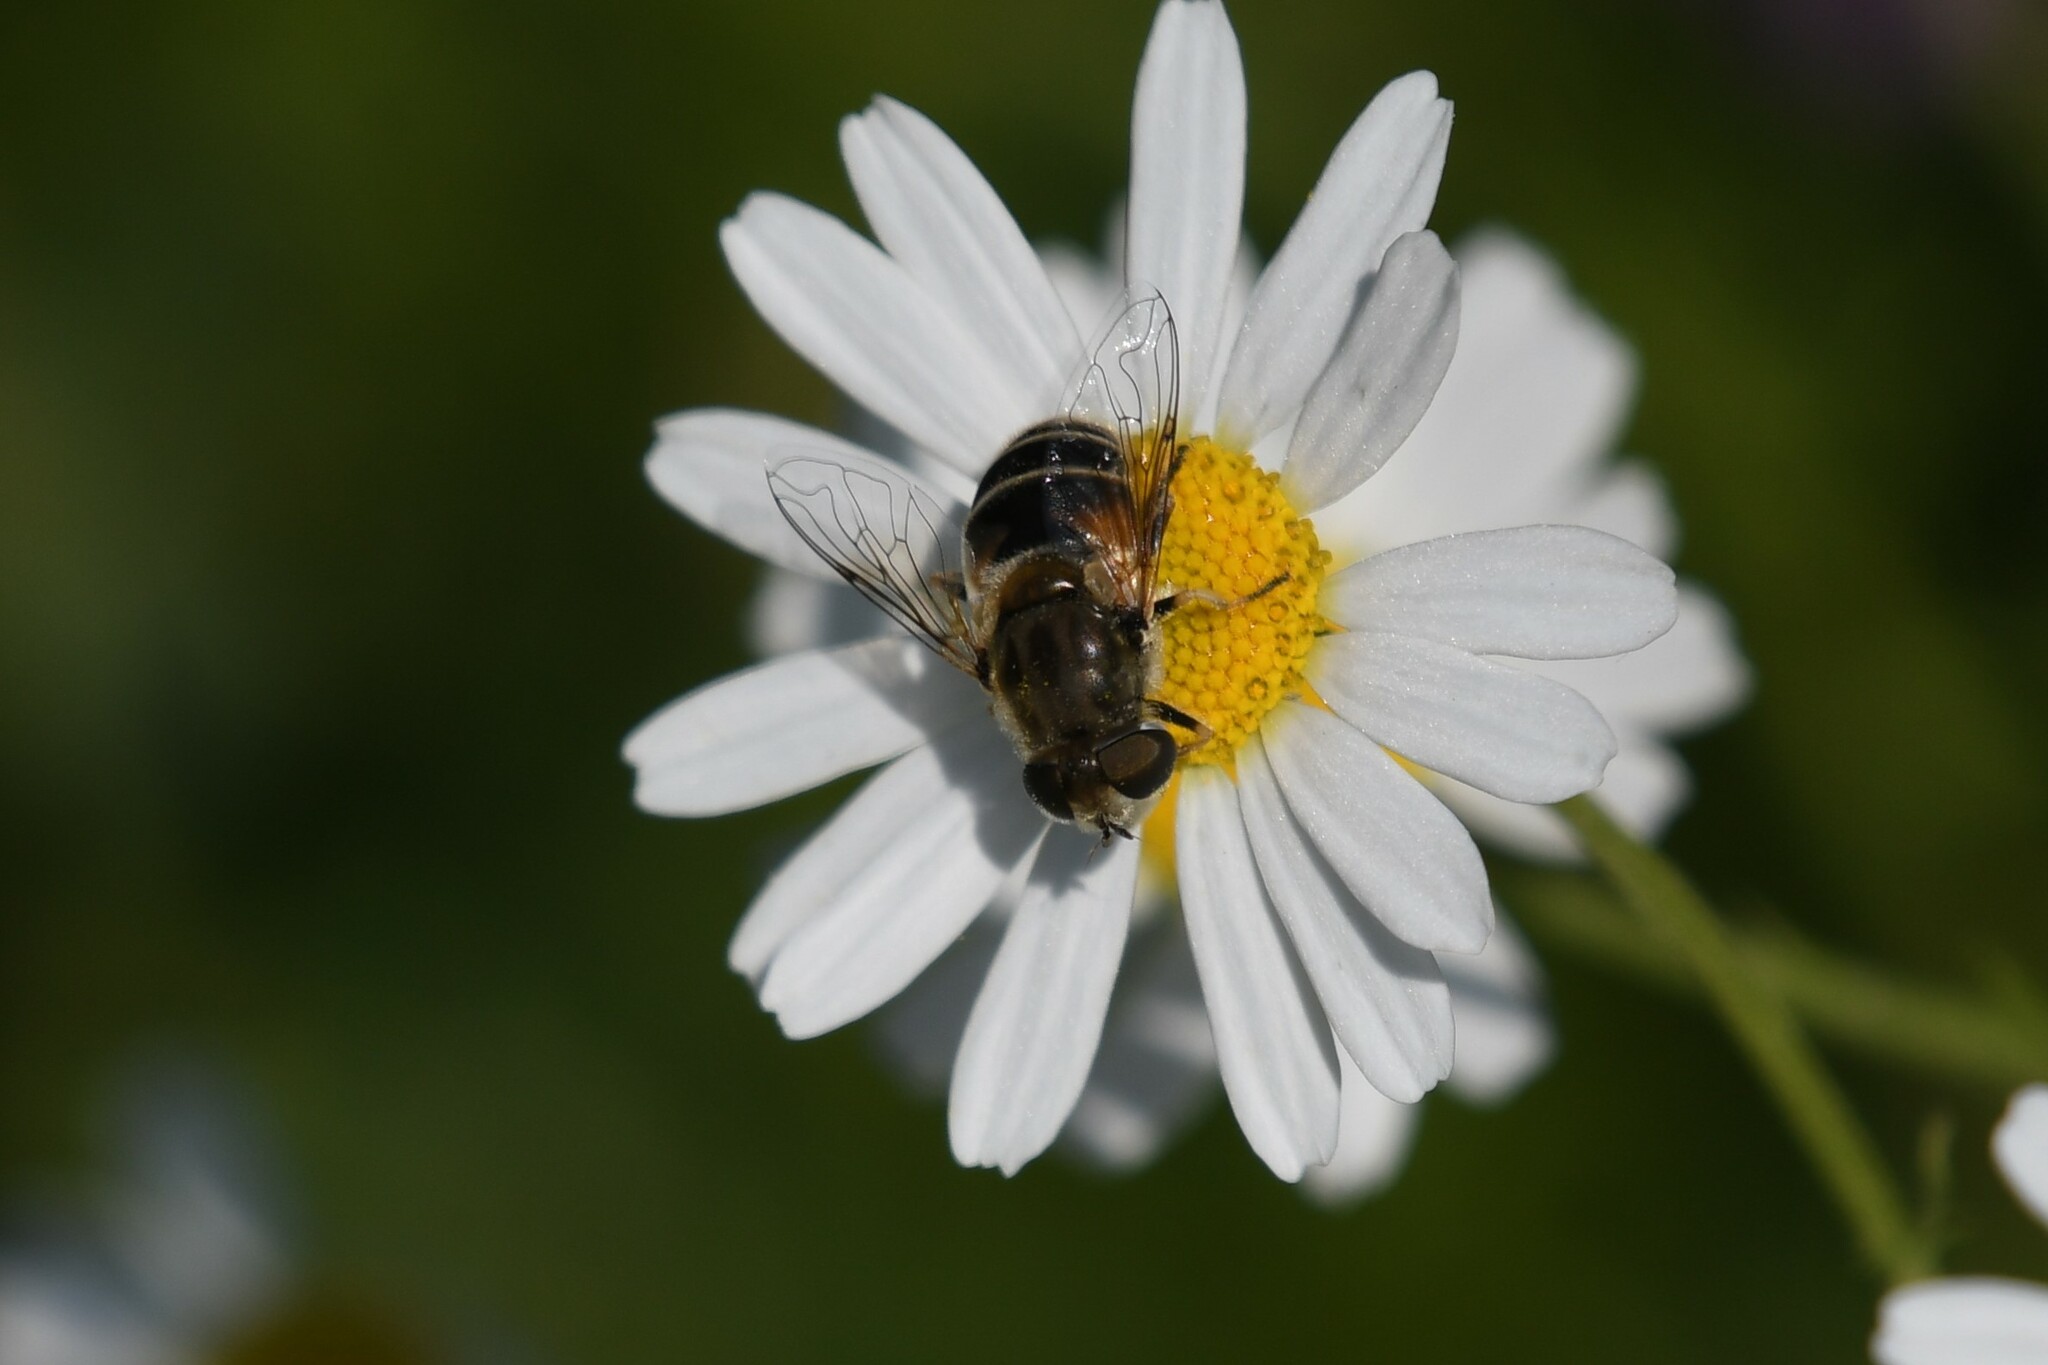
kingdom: Animalia
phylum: Arthropoda
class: Insecta
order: Diptera
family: Syrphidae
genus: Eristalis
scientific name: Eristalis arbustorum
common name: Hover fly
